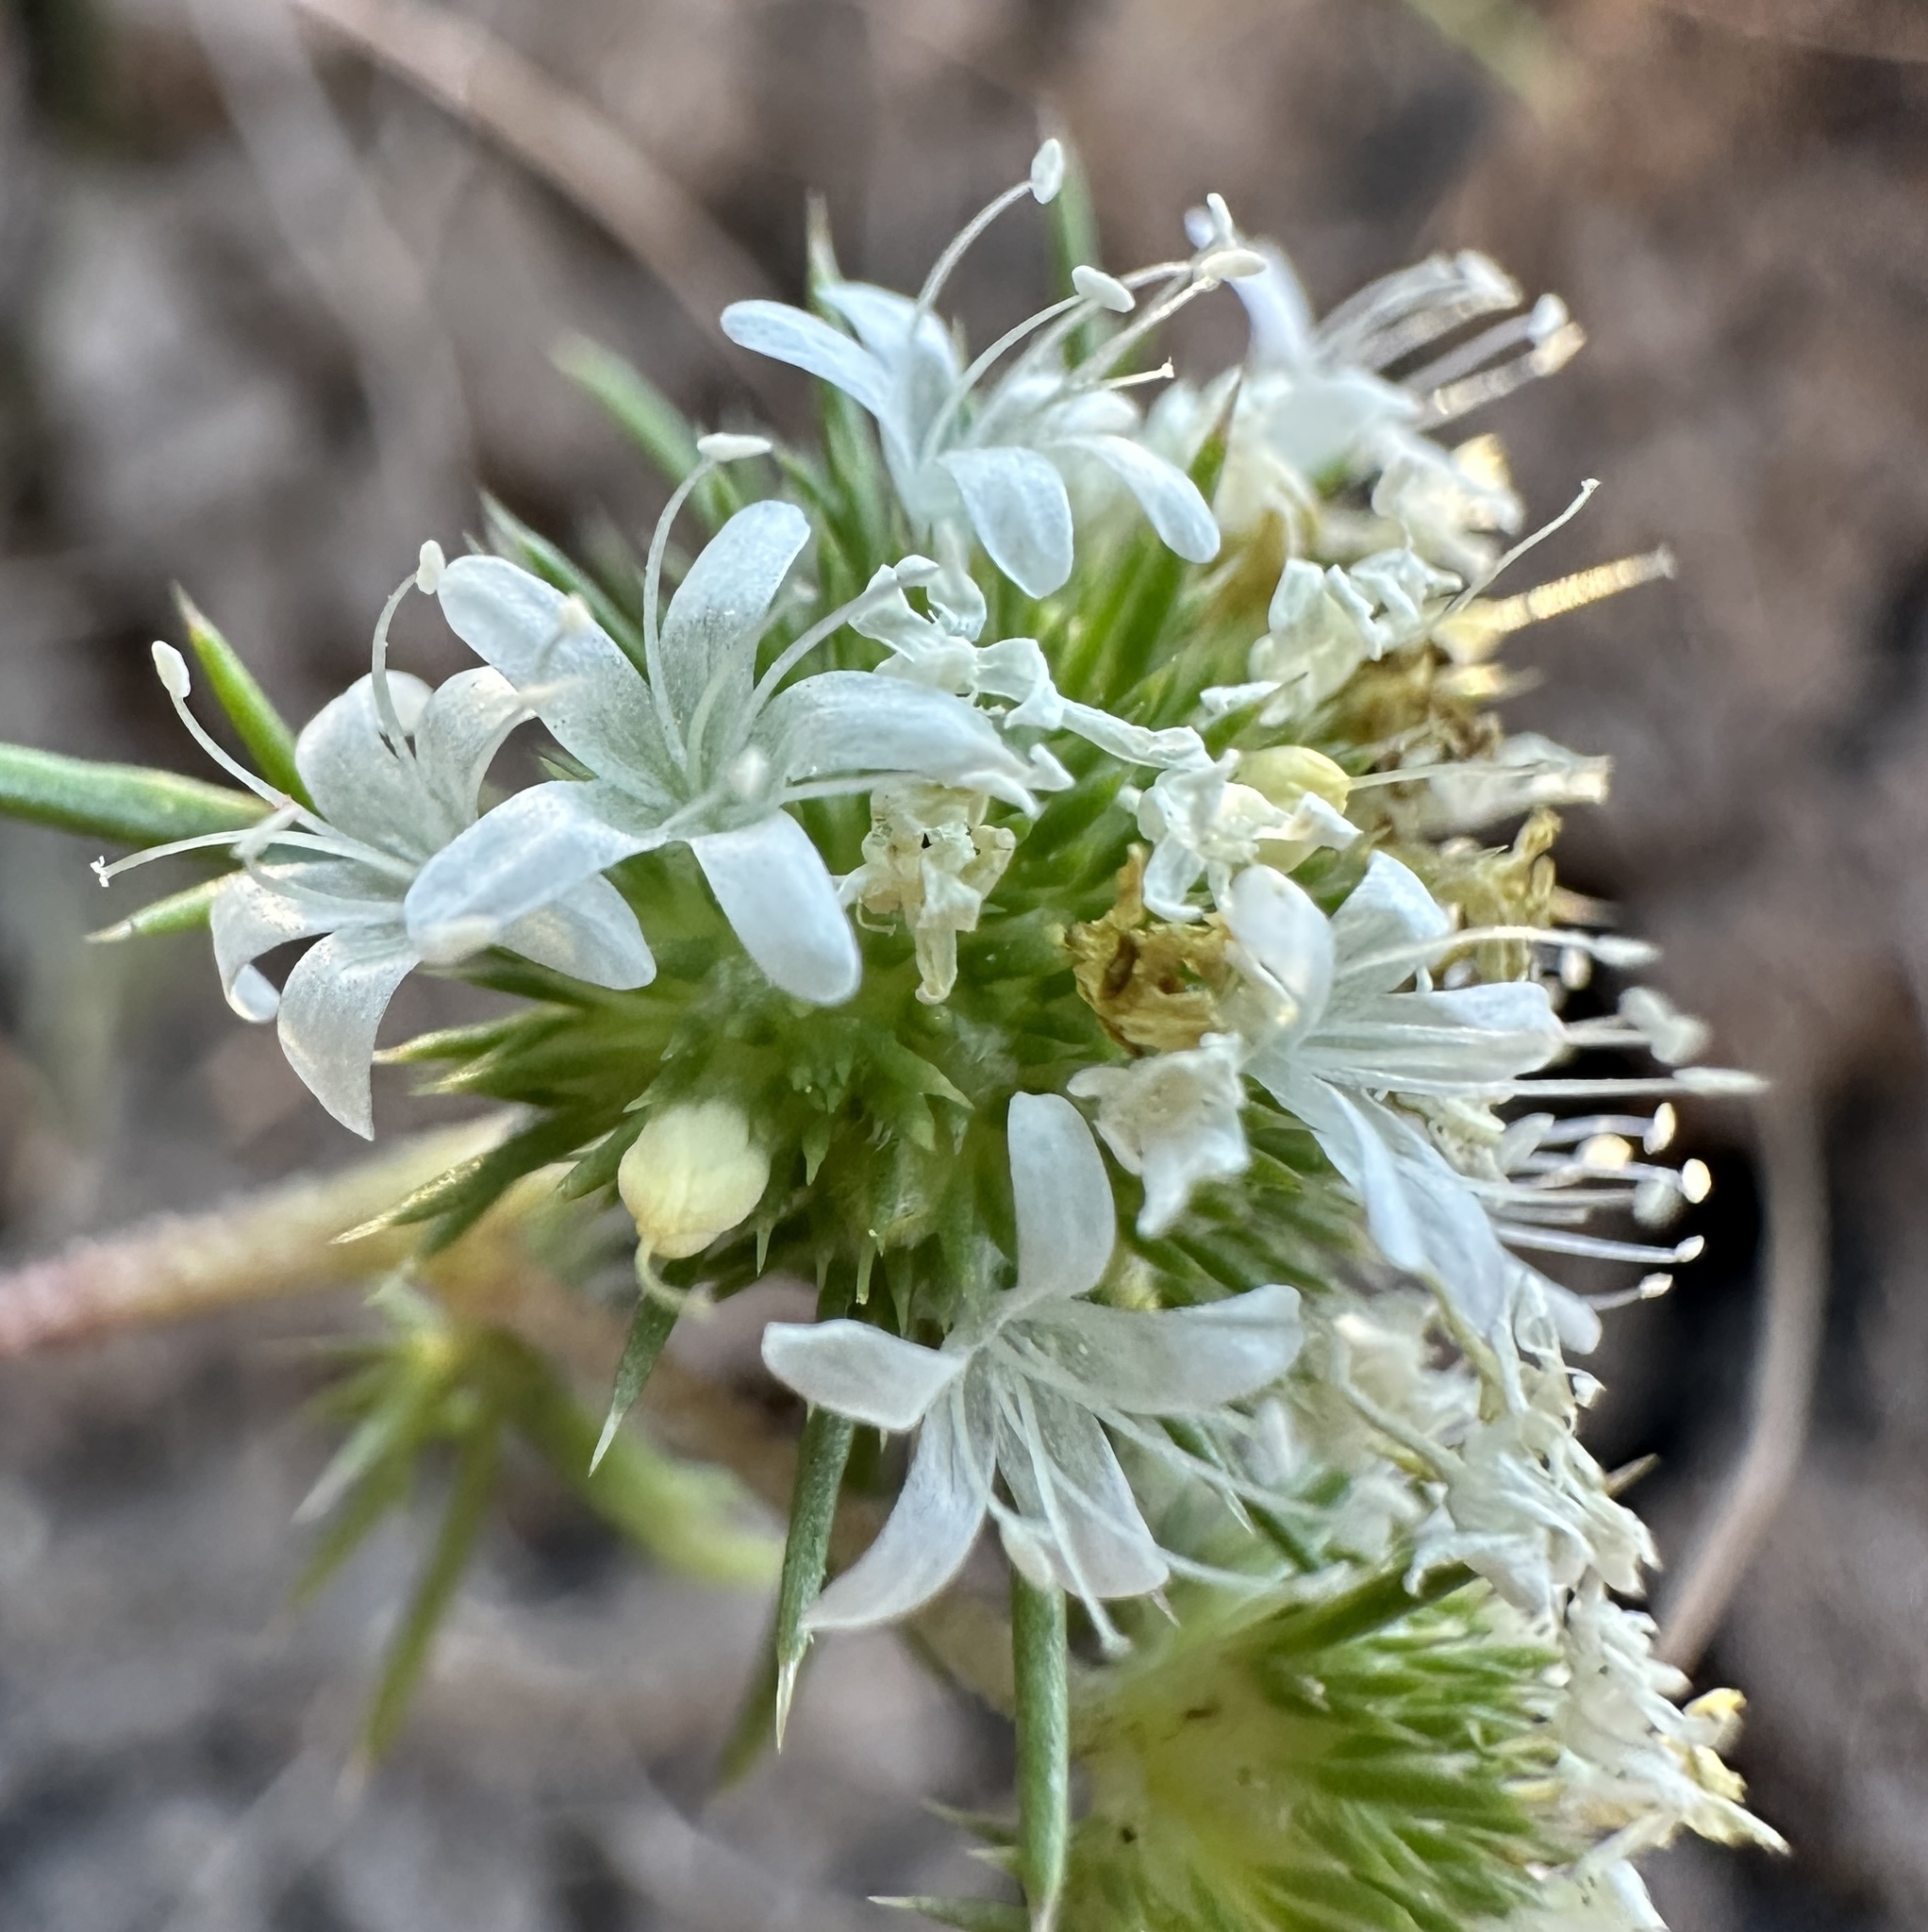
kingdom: Plantae
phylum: Tracheophyta
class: Magnoliopsida
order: Ericales
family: Polemoniaceae
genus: Navarretia
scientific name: Navarretia leucocephala
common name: White-flowered navarretia
